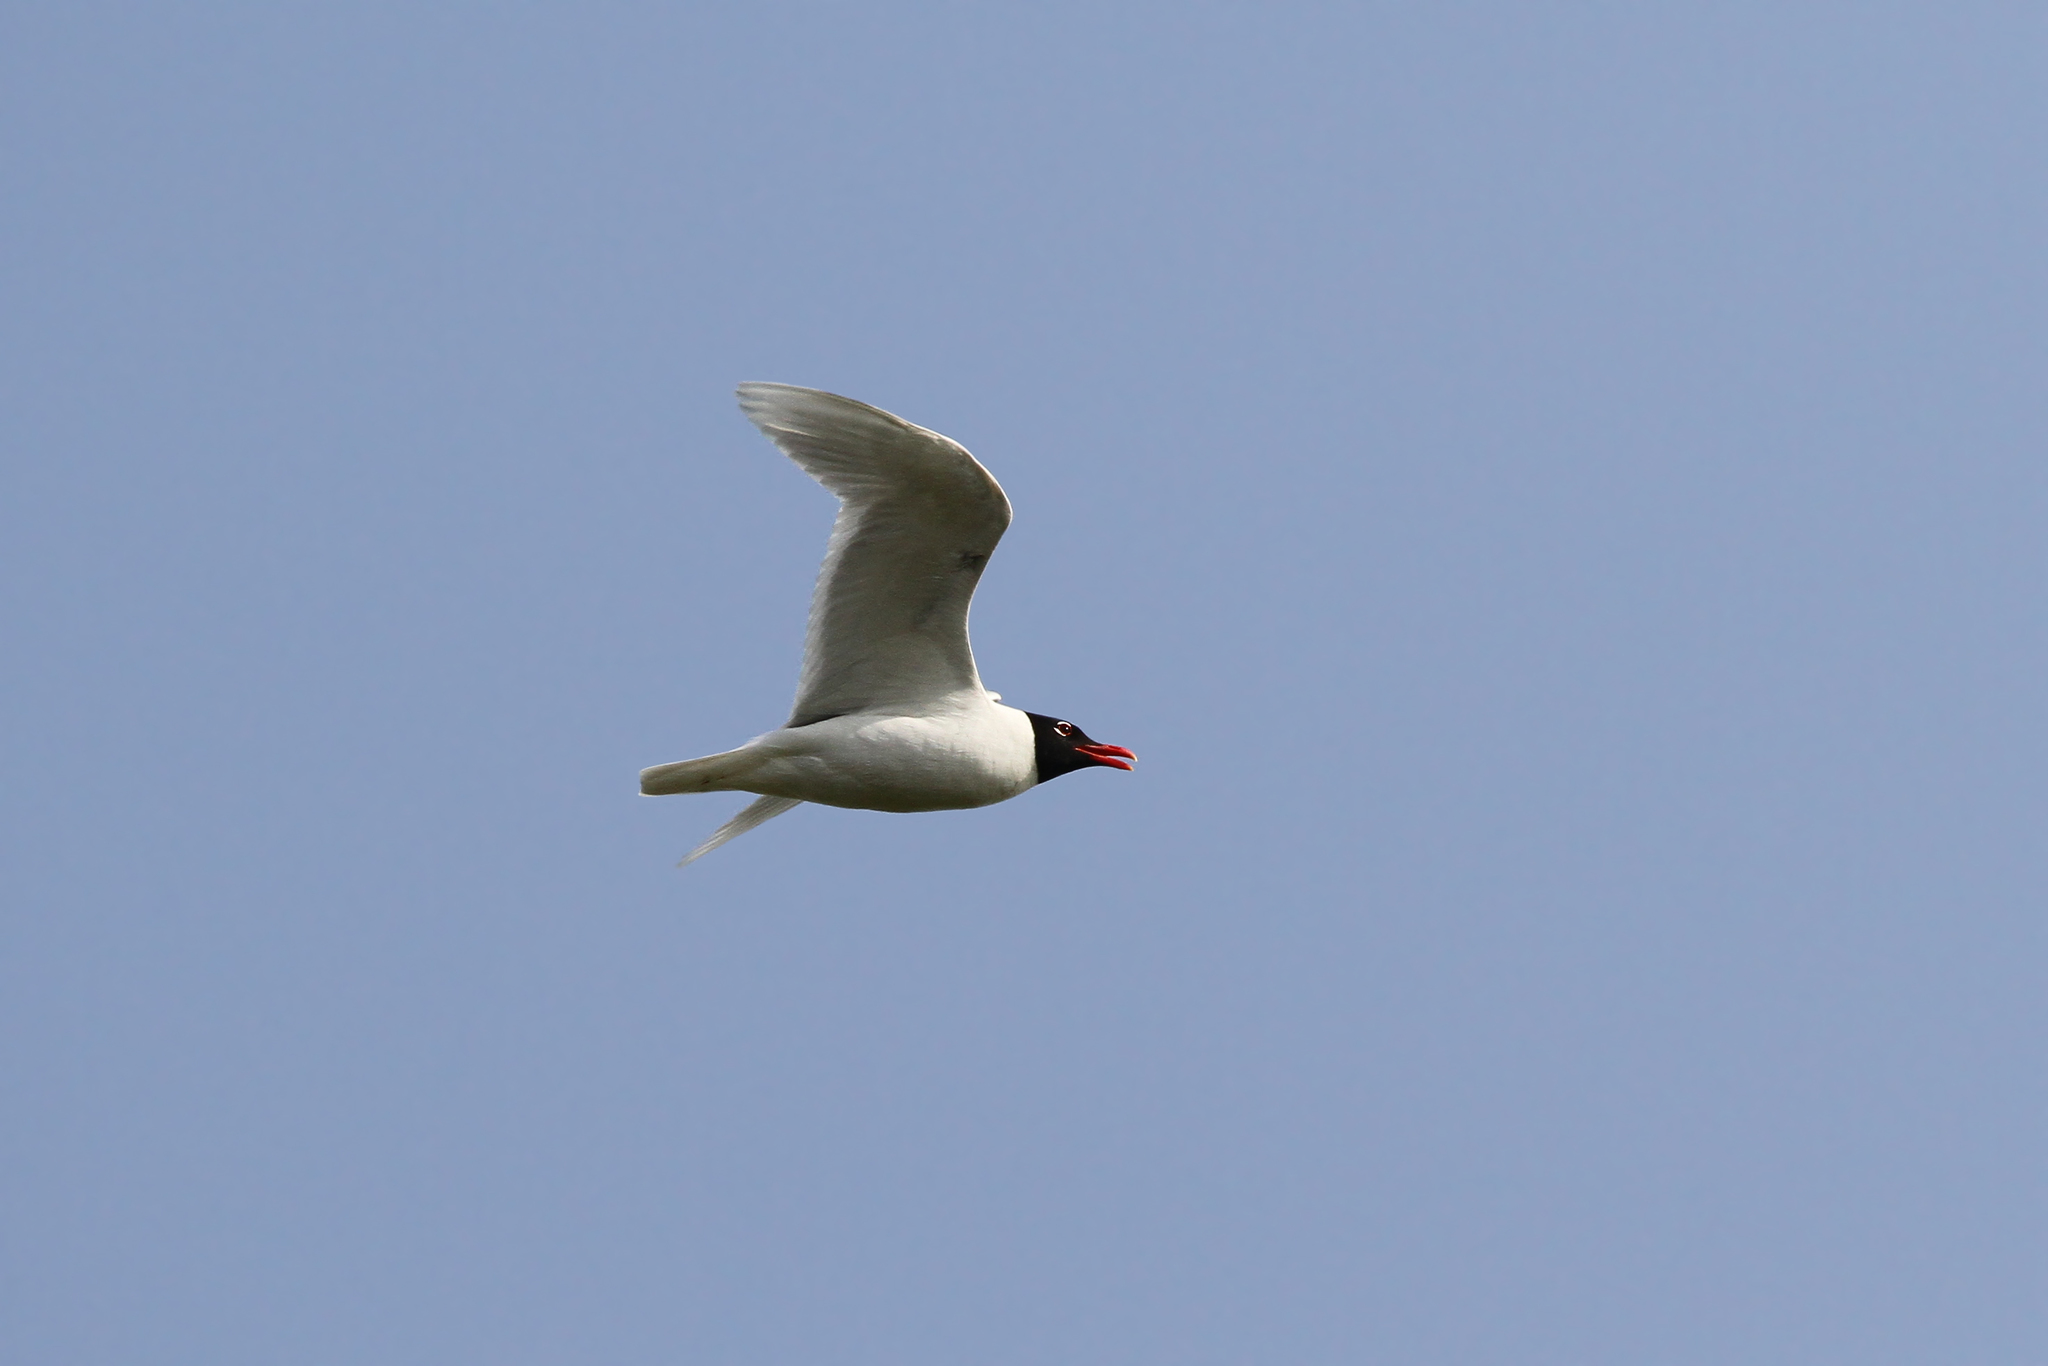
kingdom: Animalia
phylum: Chordata
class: Aves
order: Charadriiformes
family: Laridae
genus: Ichthyaetus
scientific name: Ichthyaetus melanocephalus
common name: Mediterranean gull
